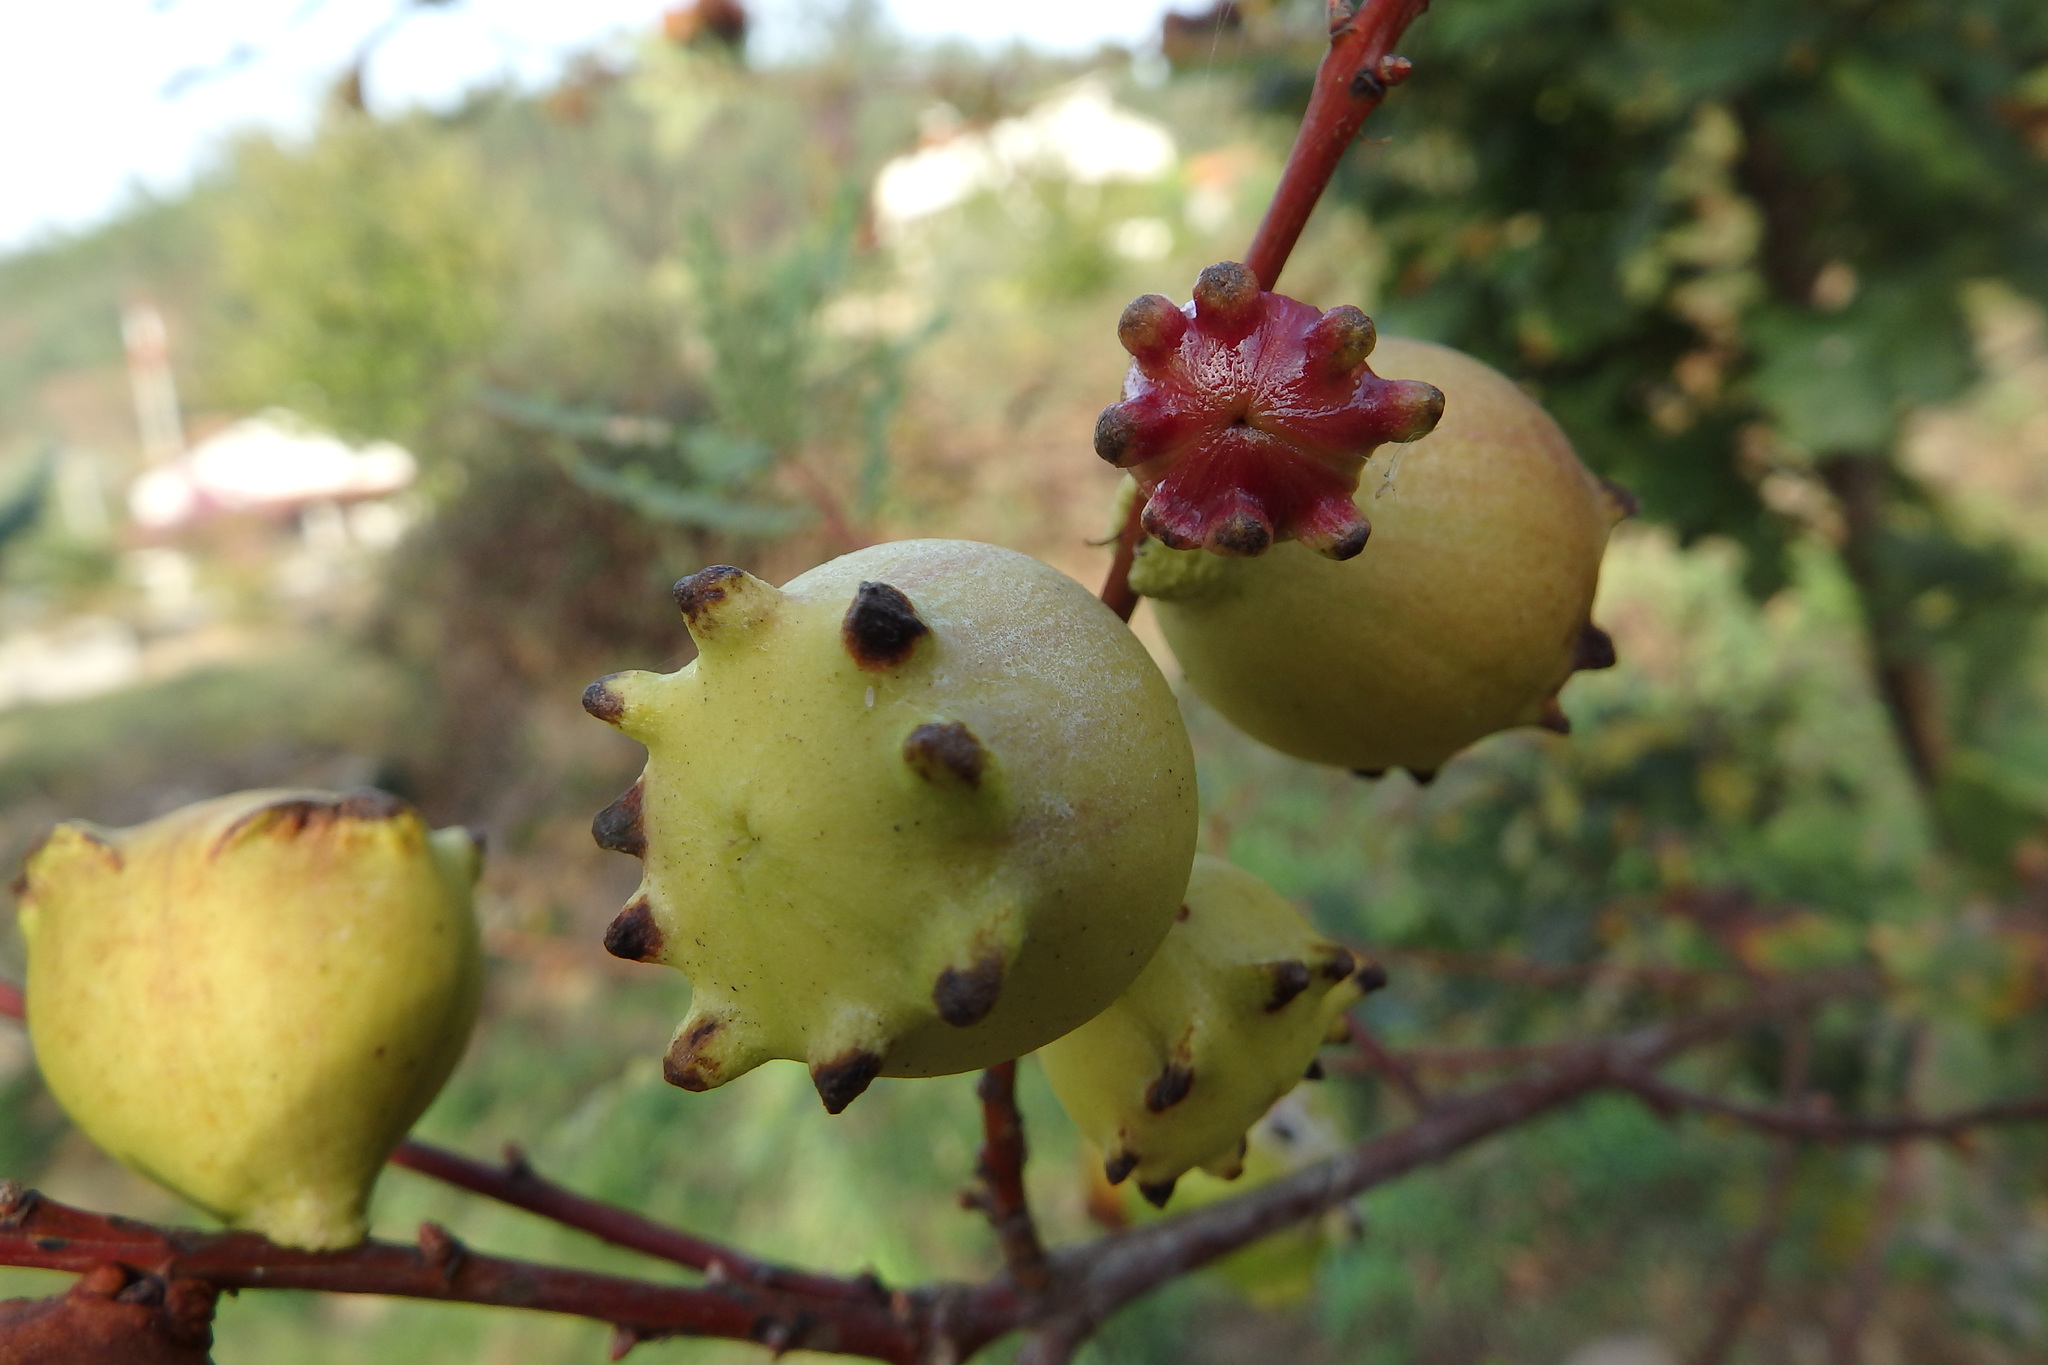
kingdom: Animalia
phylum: Arthropoda
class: Insecta
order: Hymenoptera
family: Cynipidae
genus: Andricus
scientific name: Andricus quercustozae
